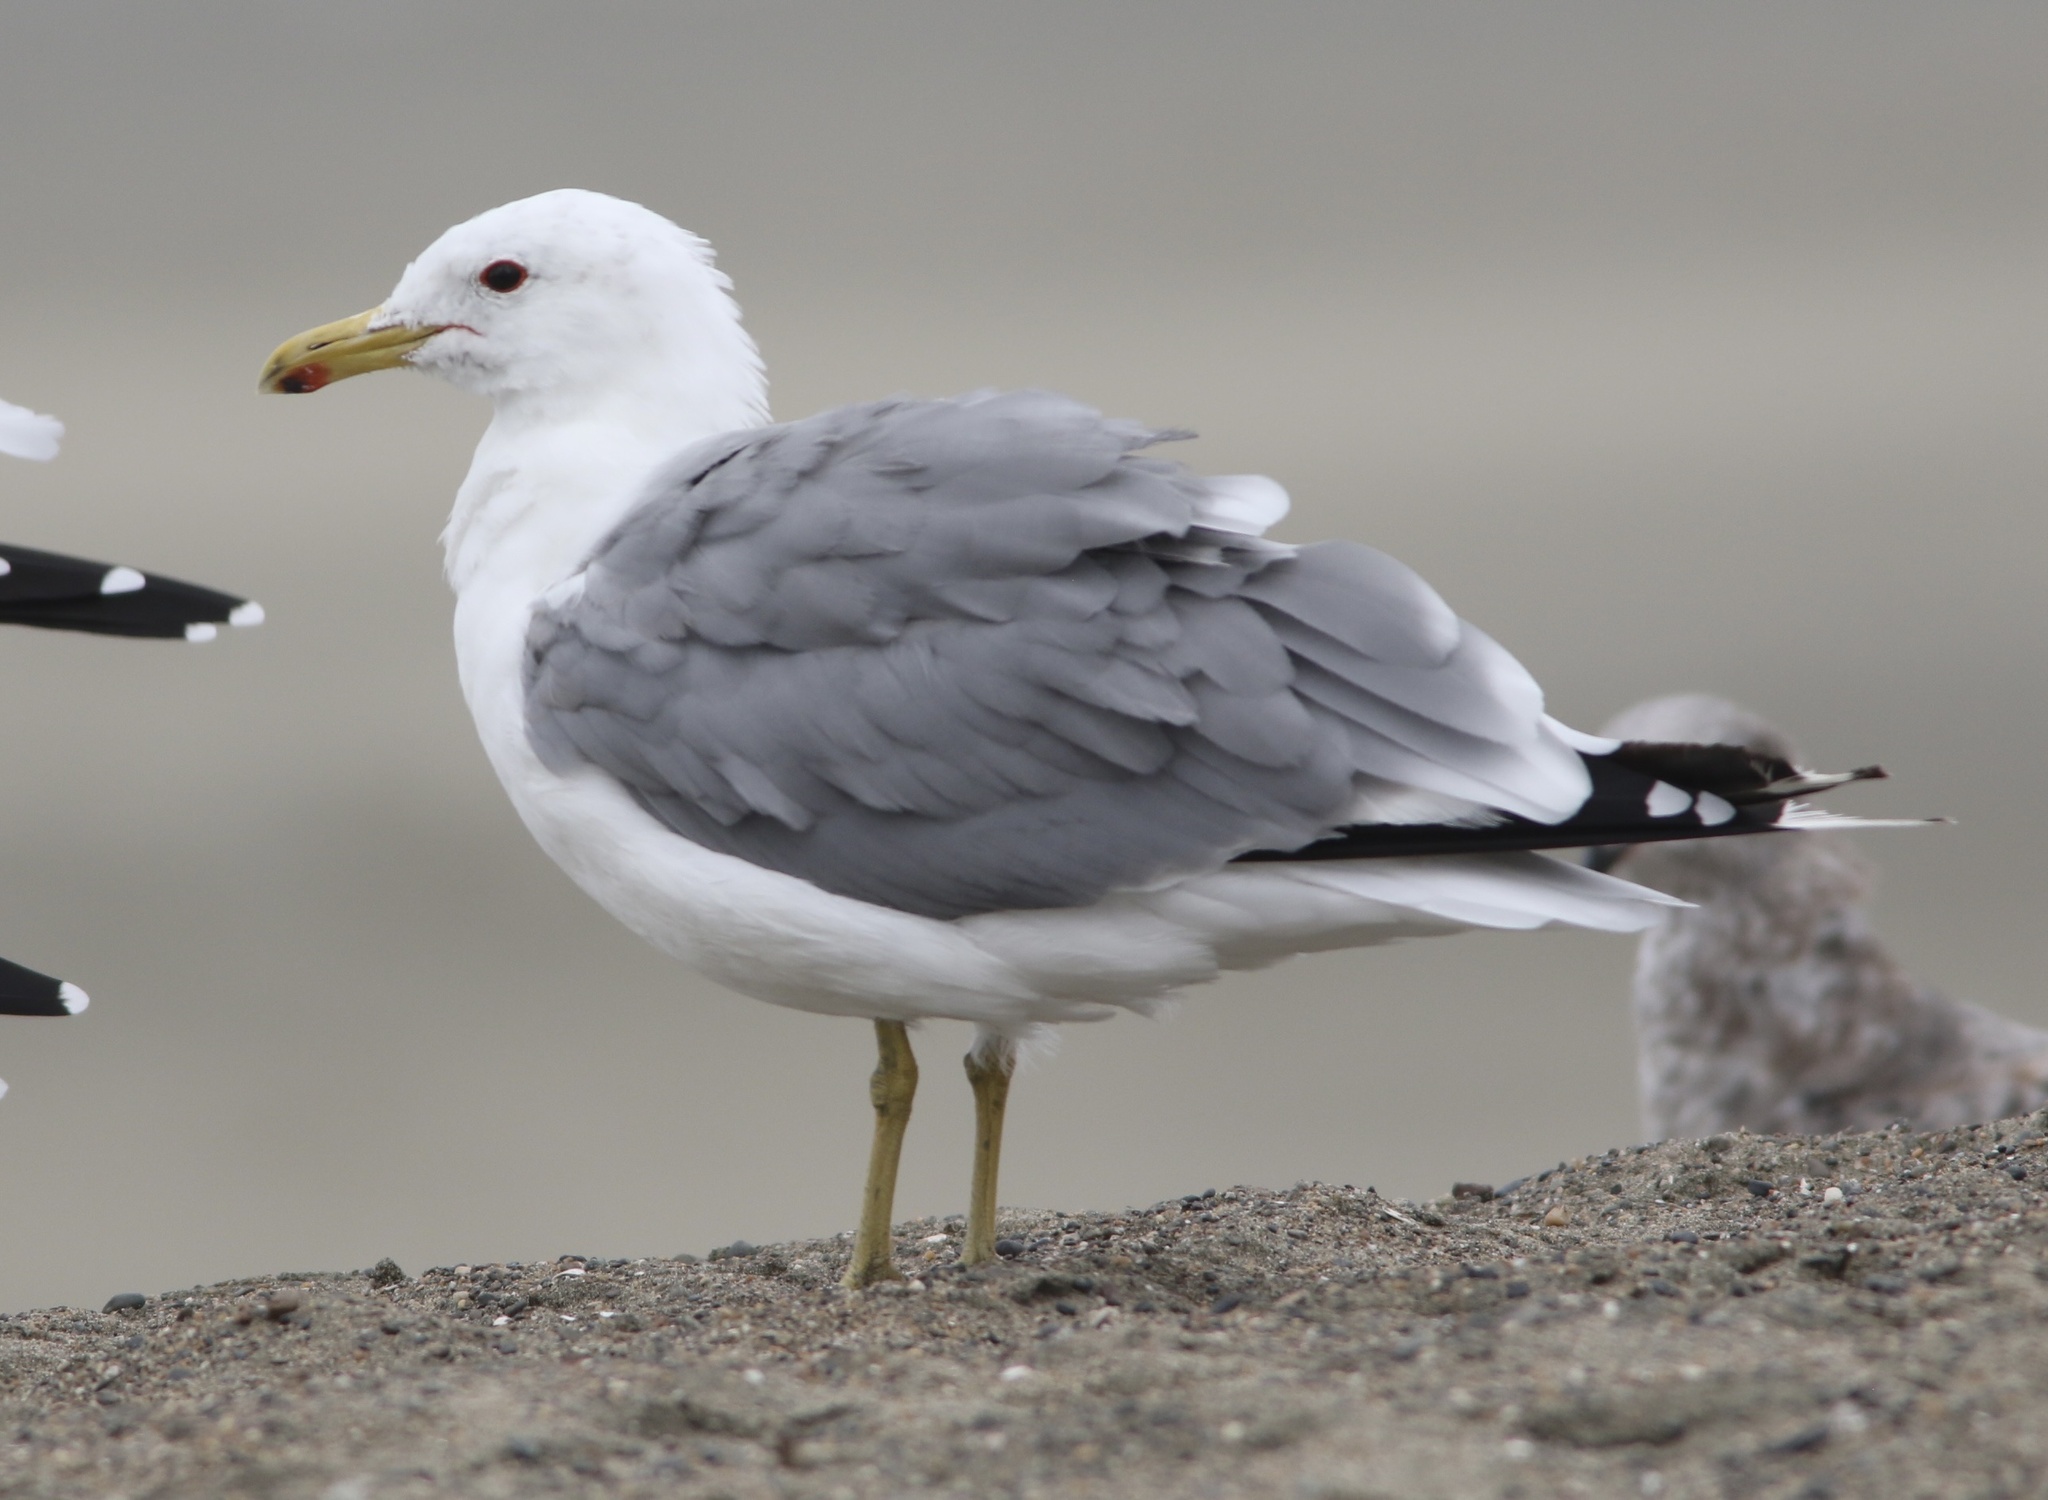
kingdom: Animalia
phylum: Chordata
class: Aves
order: Charadriiformes
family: Laridae
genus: Larus
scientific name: Larus californicus
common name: California gull
